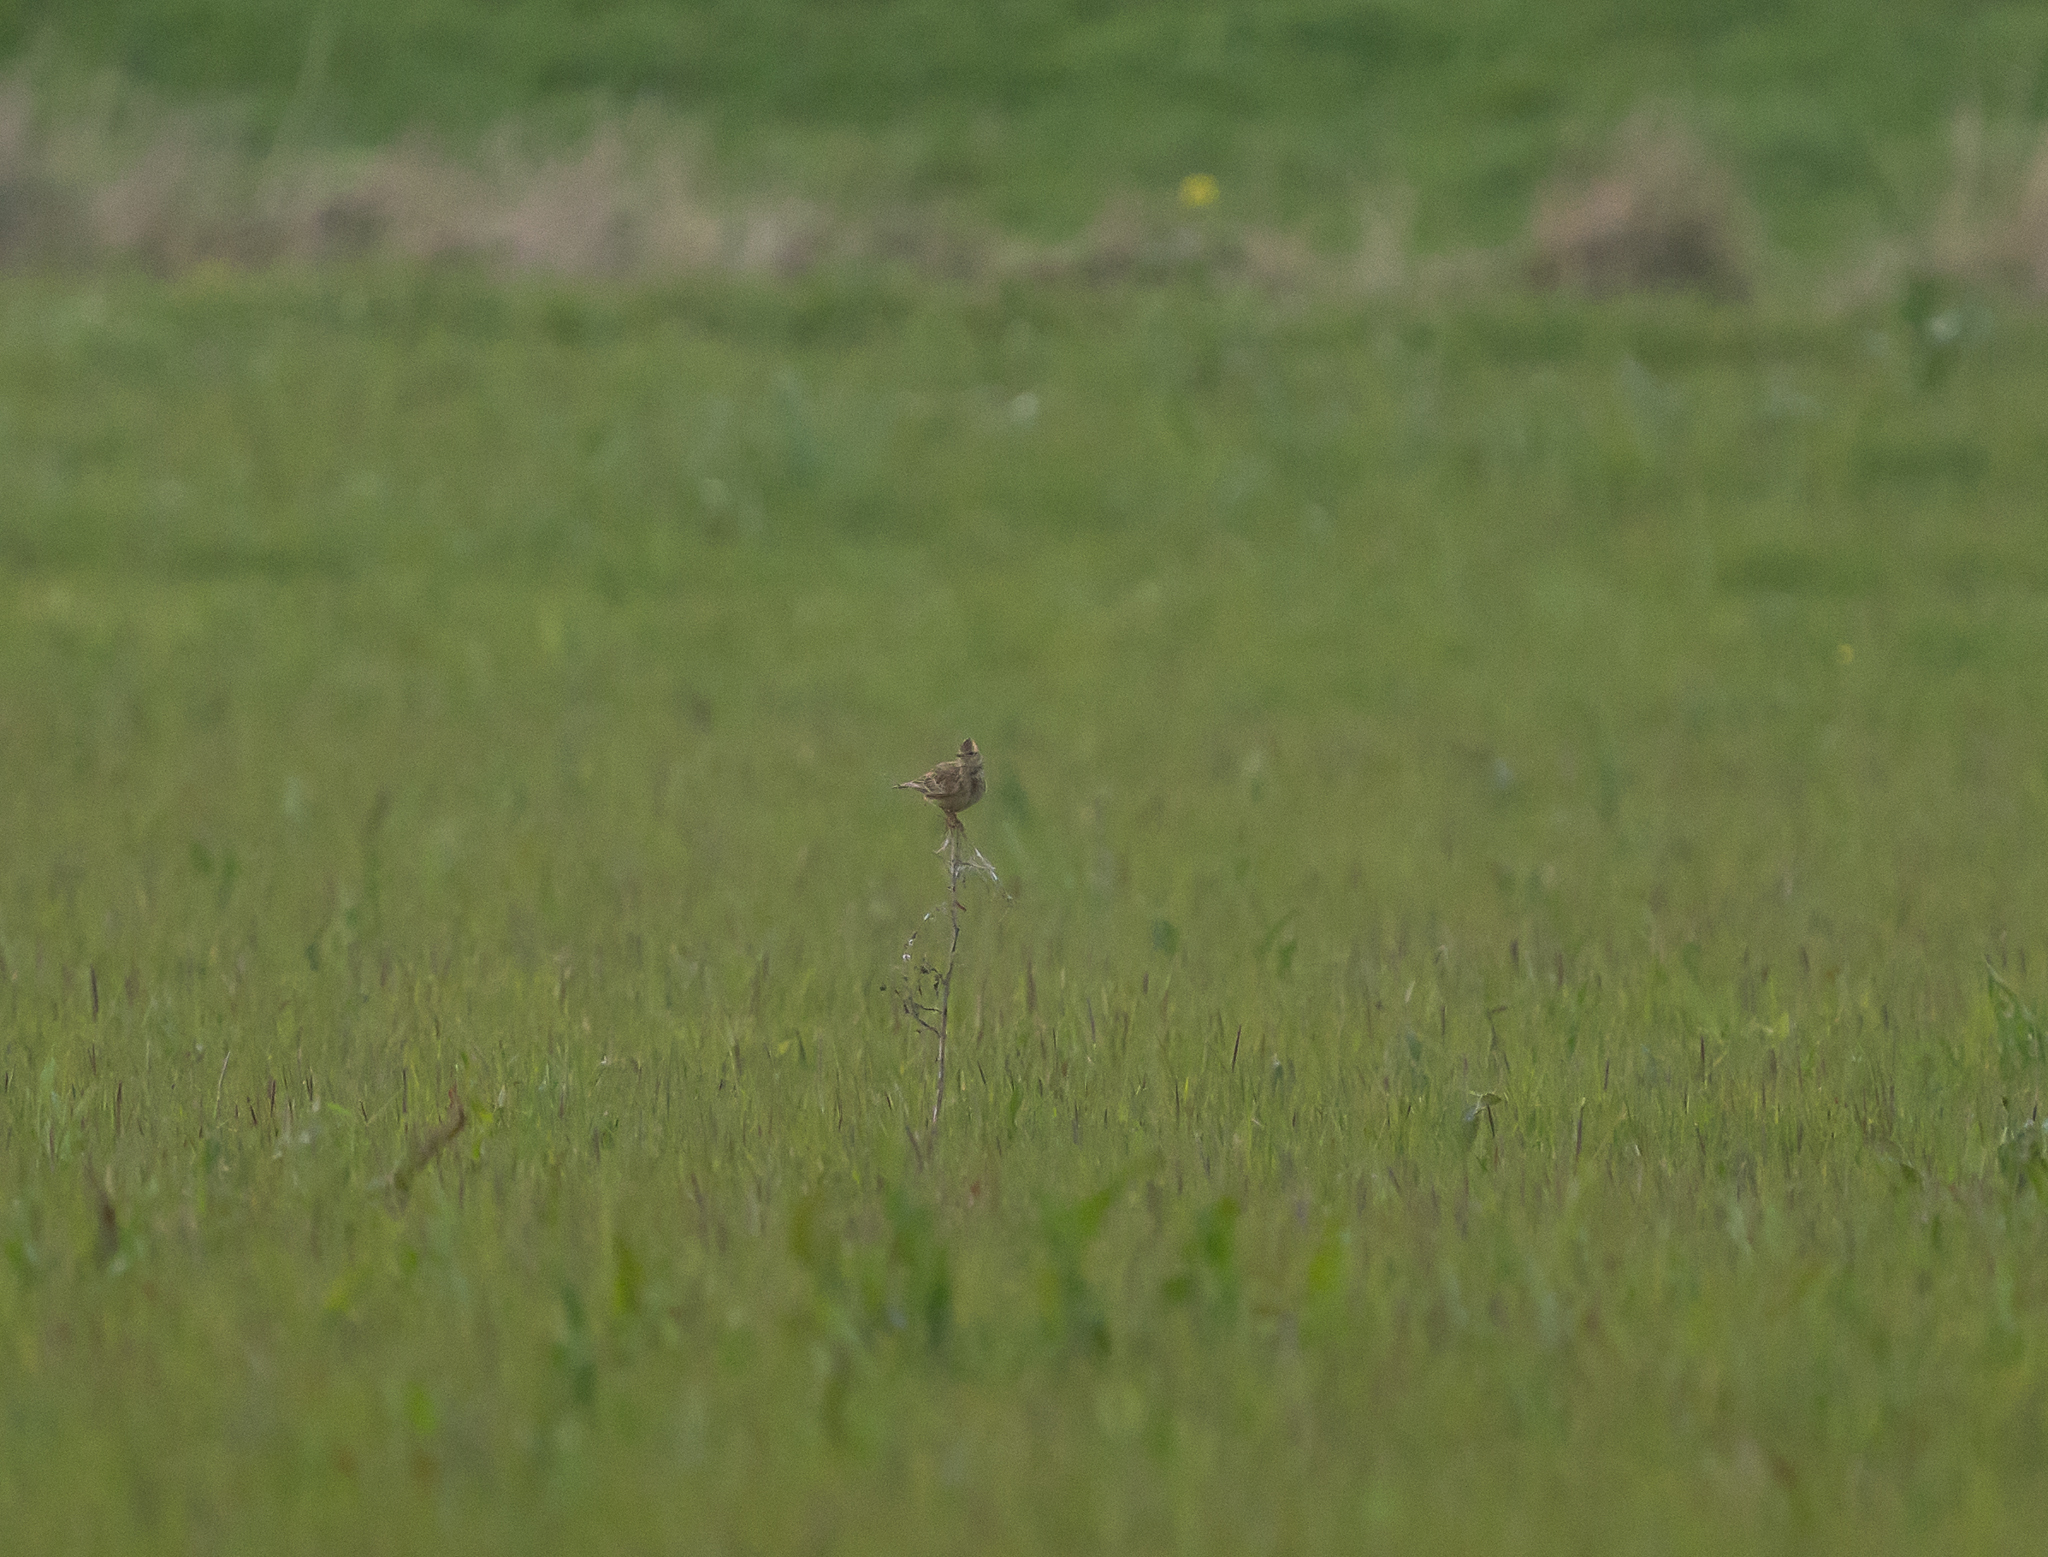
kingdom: Animalia
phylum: Chordata
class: Aves
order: Passeriformes
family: Alaudidae
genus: Alauda
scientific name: Alauda arvensis
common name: Eurasian skylark
